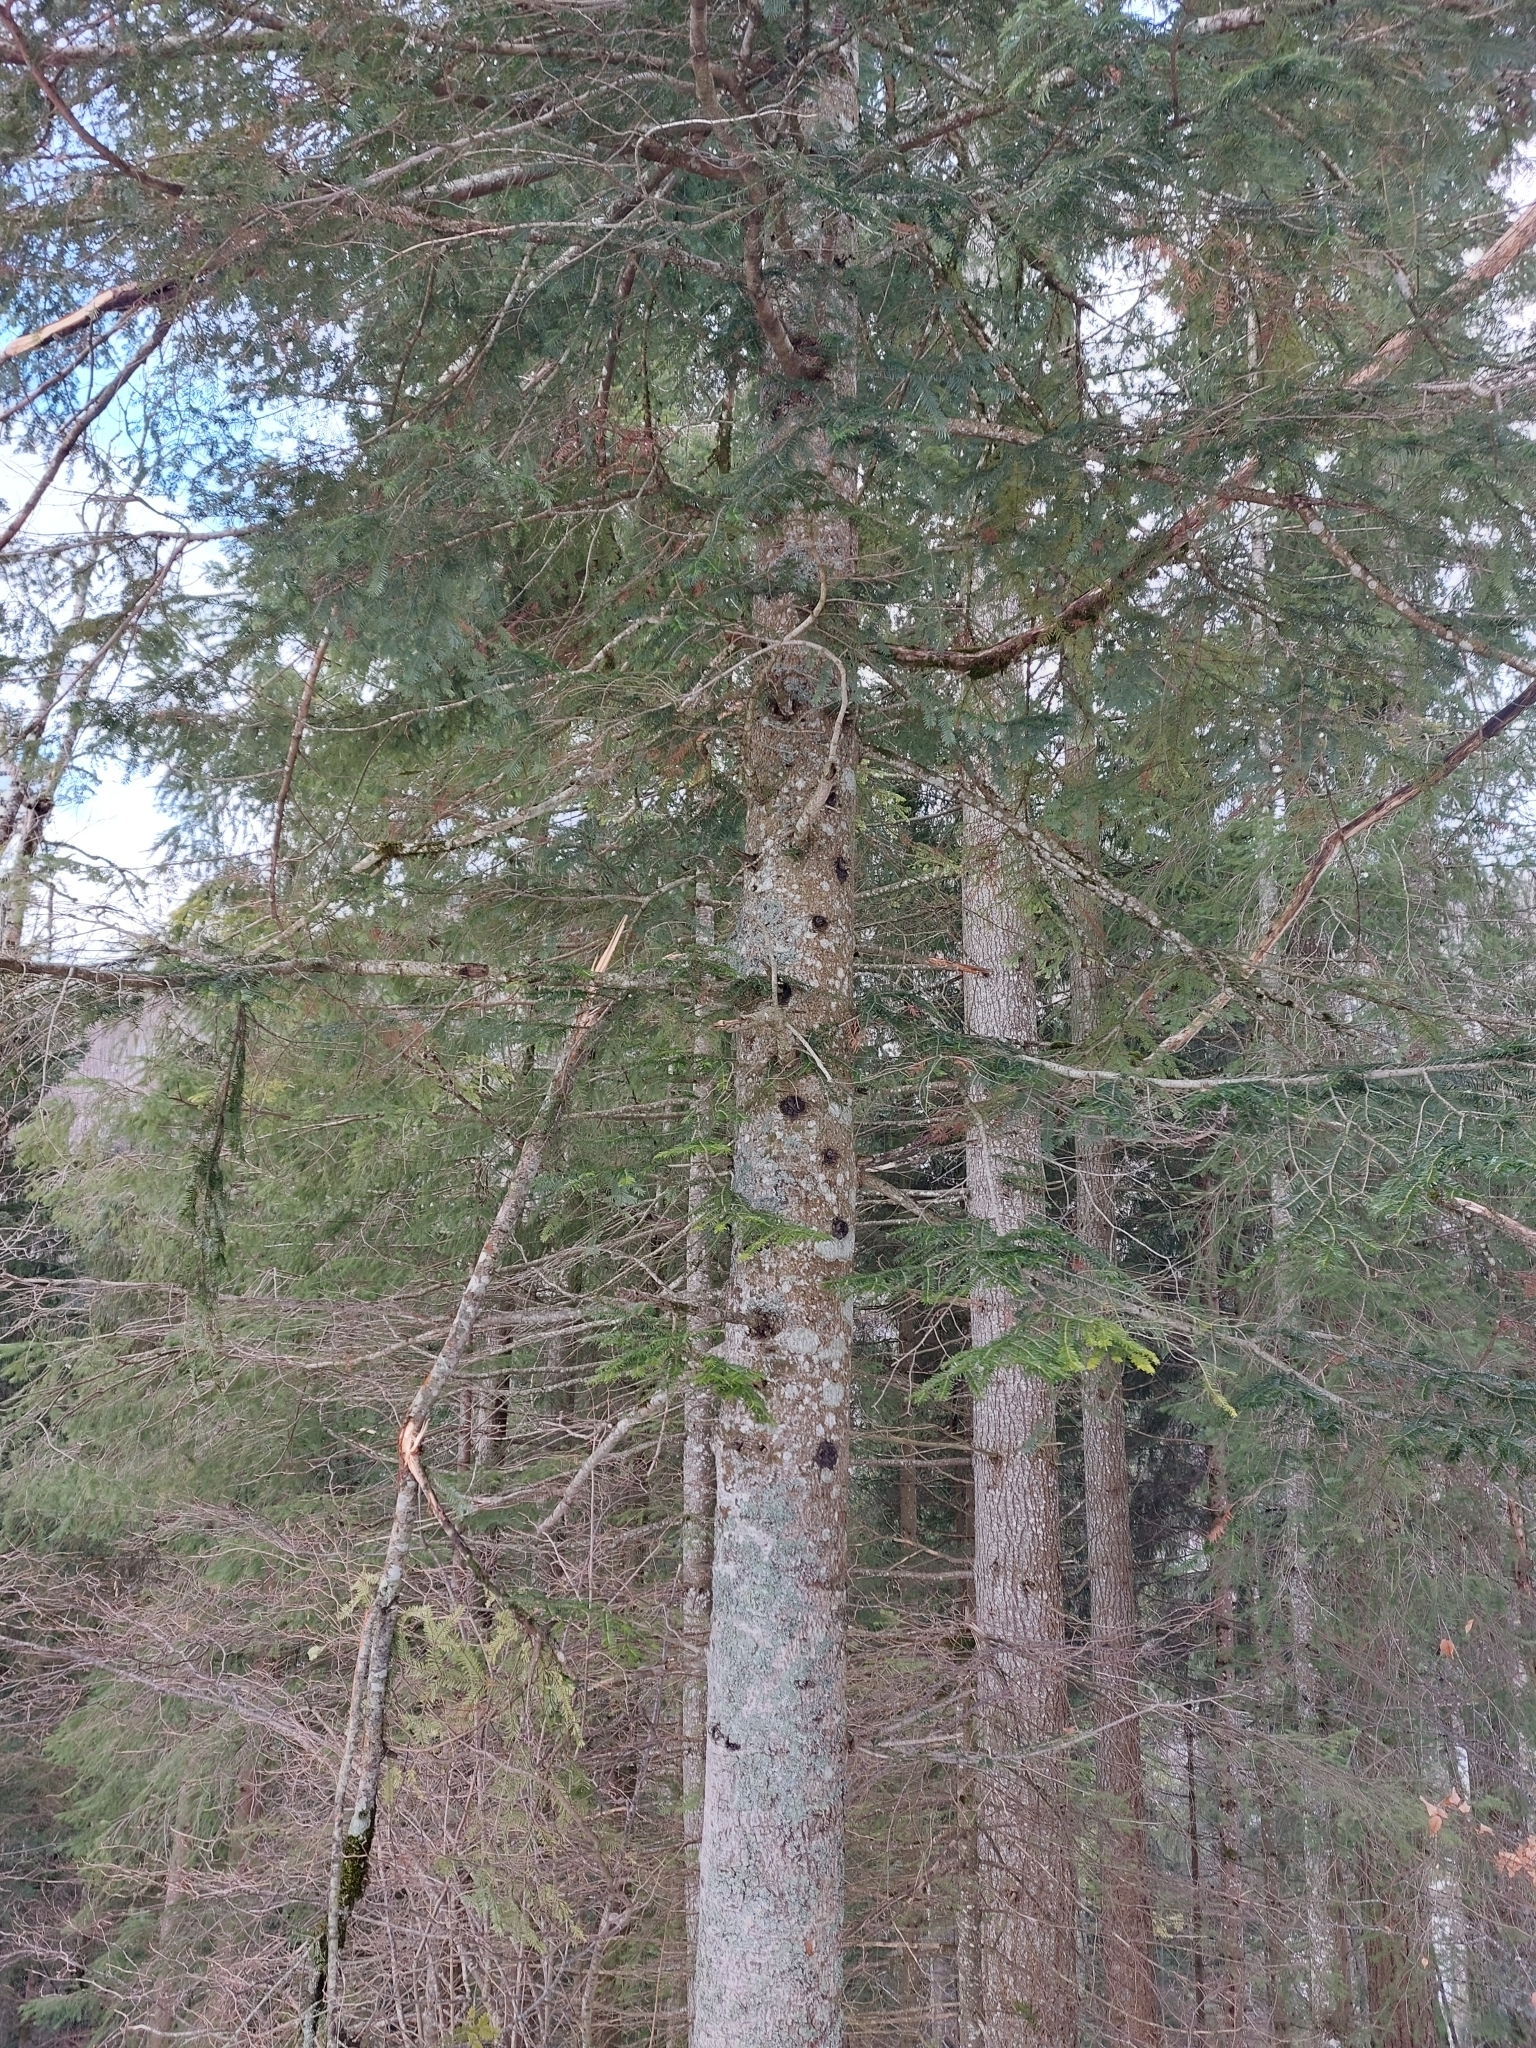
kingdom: Plantae
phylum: Tracheophyta
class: Pinopsida
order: Pinales
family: Pinaceae
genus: Abies
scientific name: Abies alba
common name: Silver fir
